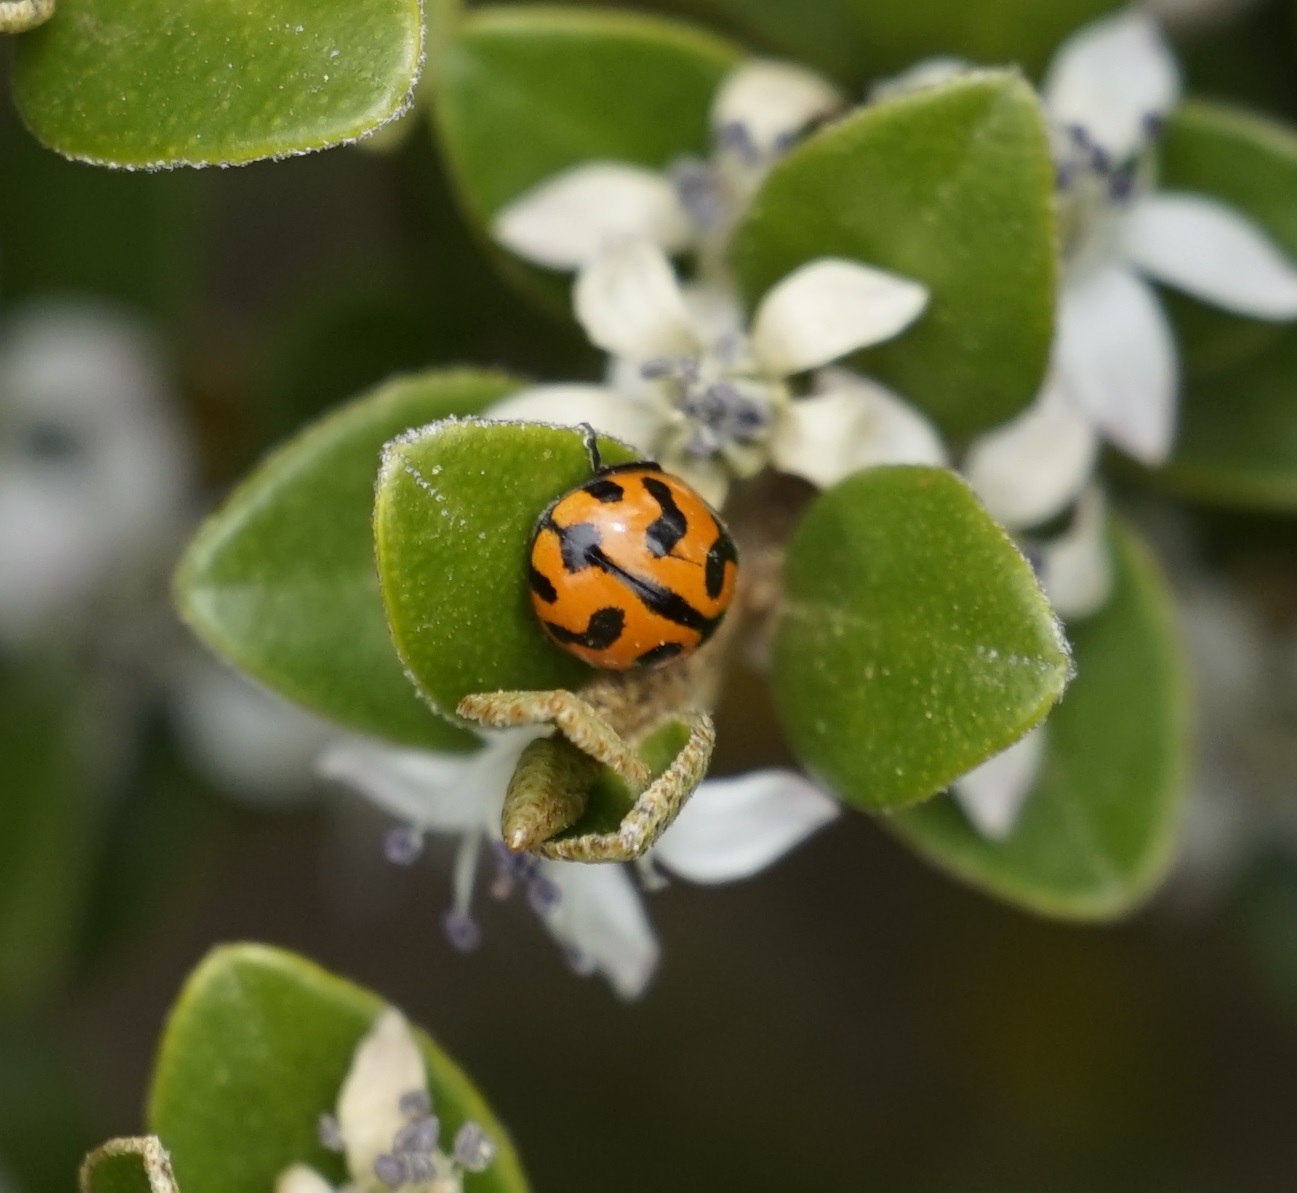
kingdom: Animalia
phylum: Arthropoda
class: Insecta
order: Coleoptera
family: Coccinellidae
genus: Coccinella
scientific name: Coccinella transversalis
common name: Transverse lady beetle
